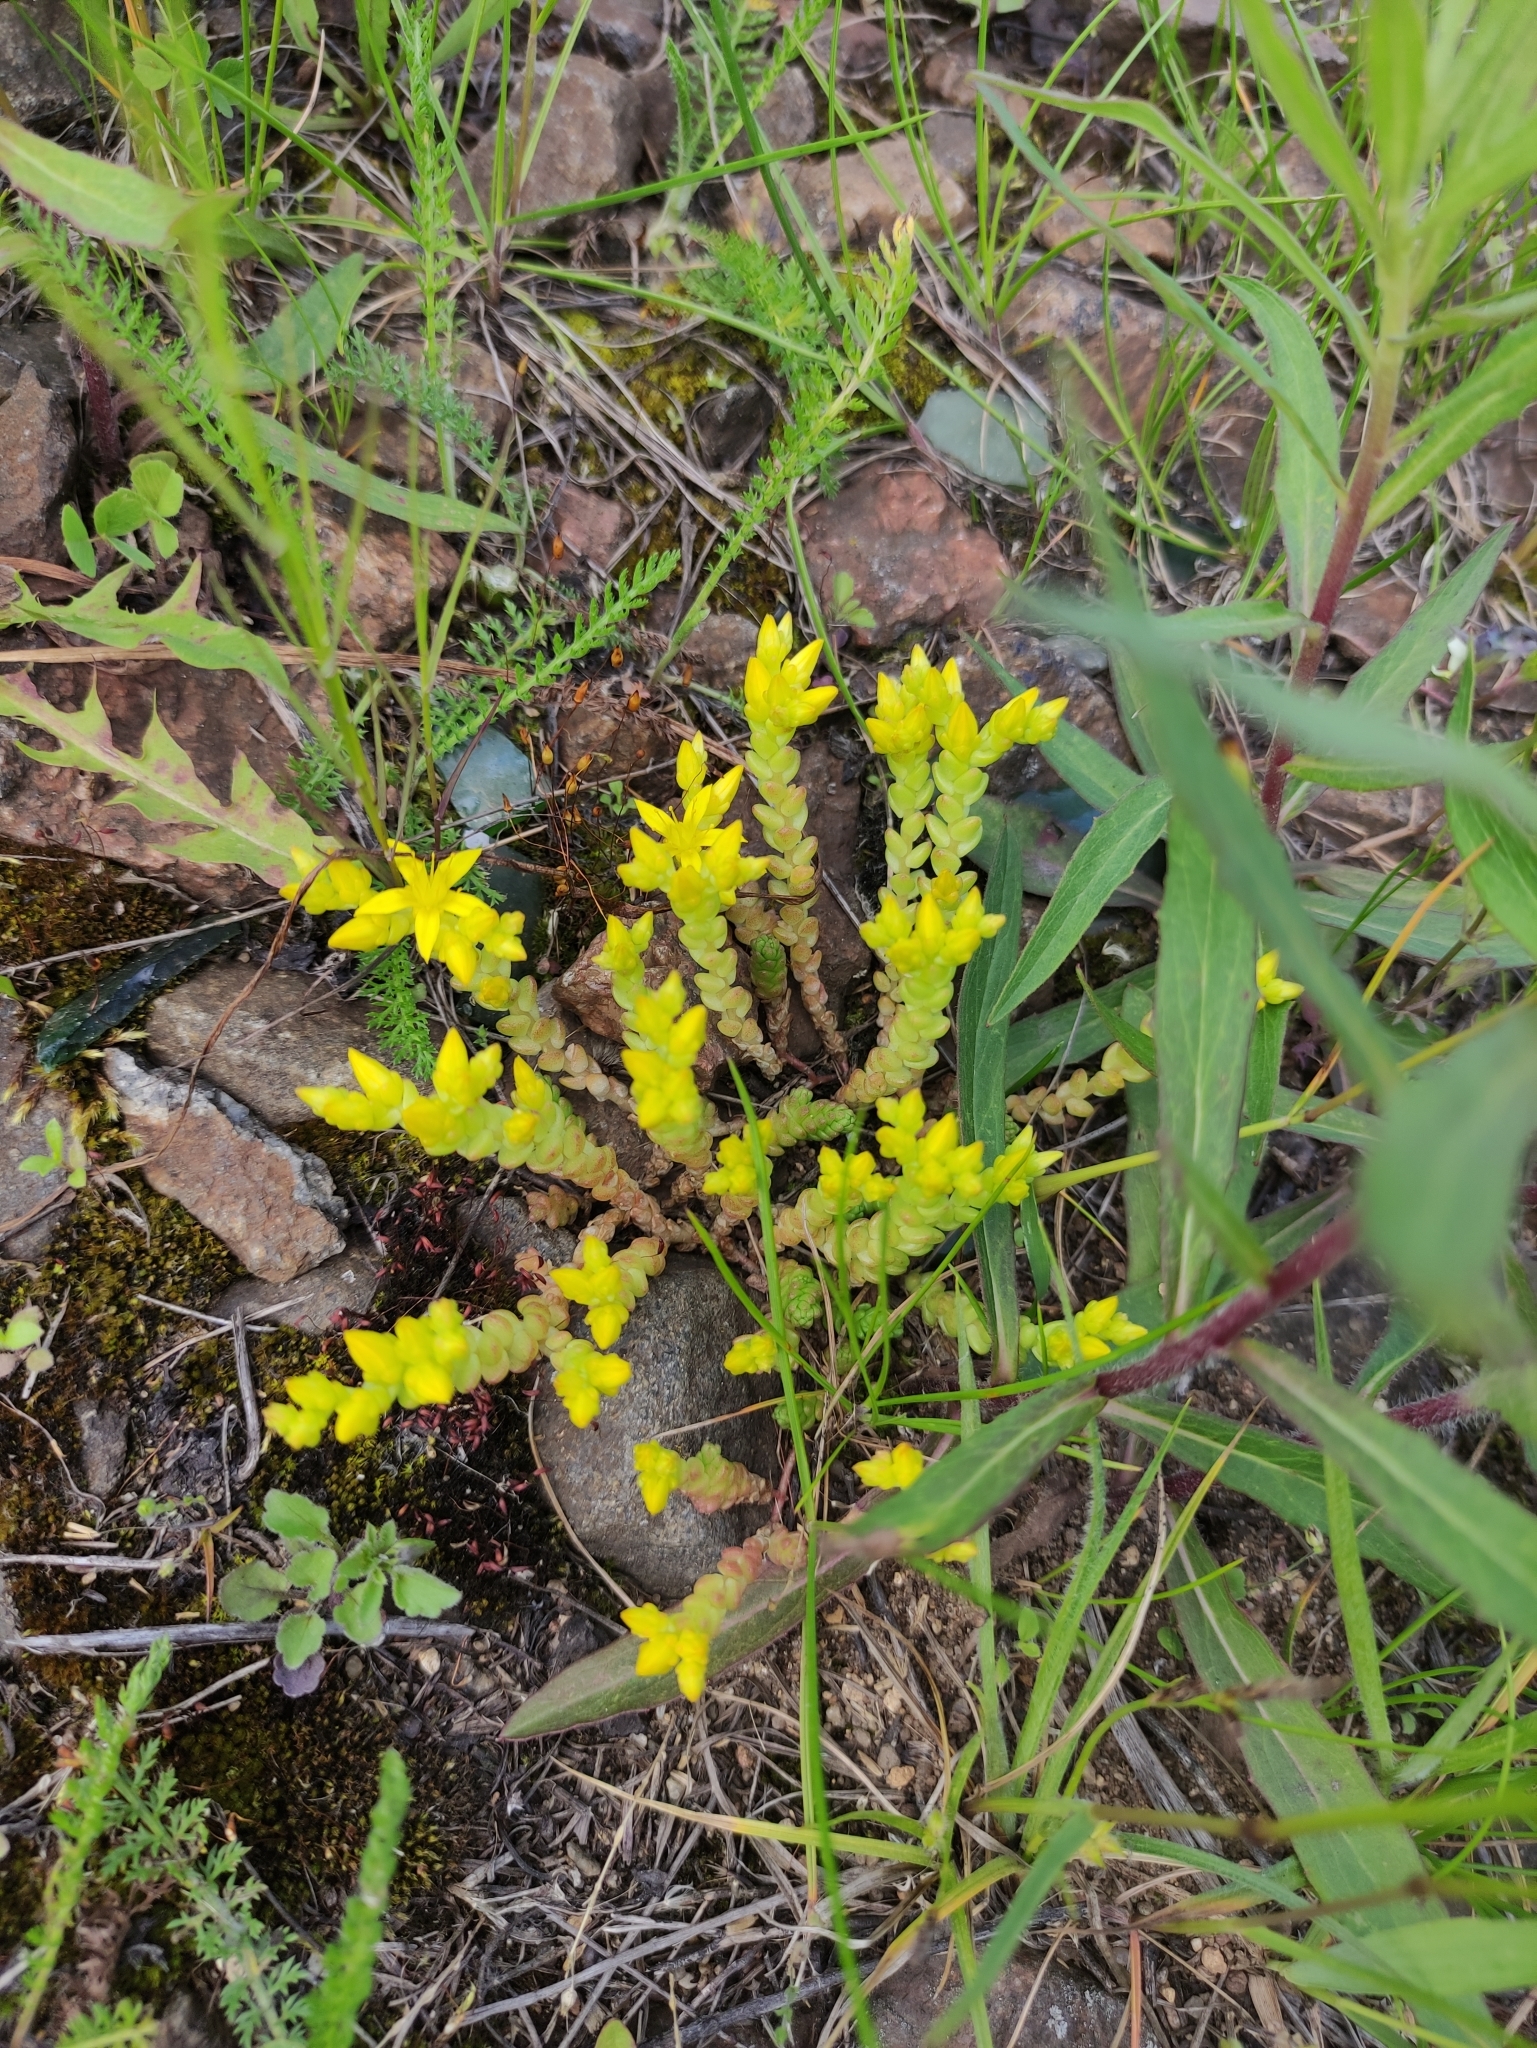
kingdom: Plantae
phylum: Tracheophyta
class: Magnoliopsida
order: Saxifragales
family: Crassulaceae
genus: Sedum
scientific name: Sedum acre
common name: Biting stonecrop
